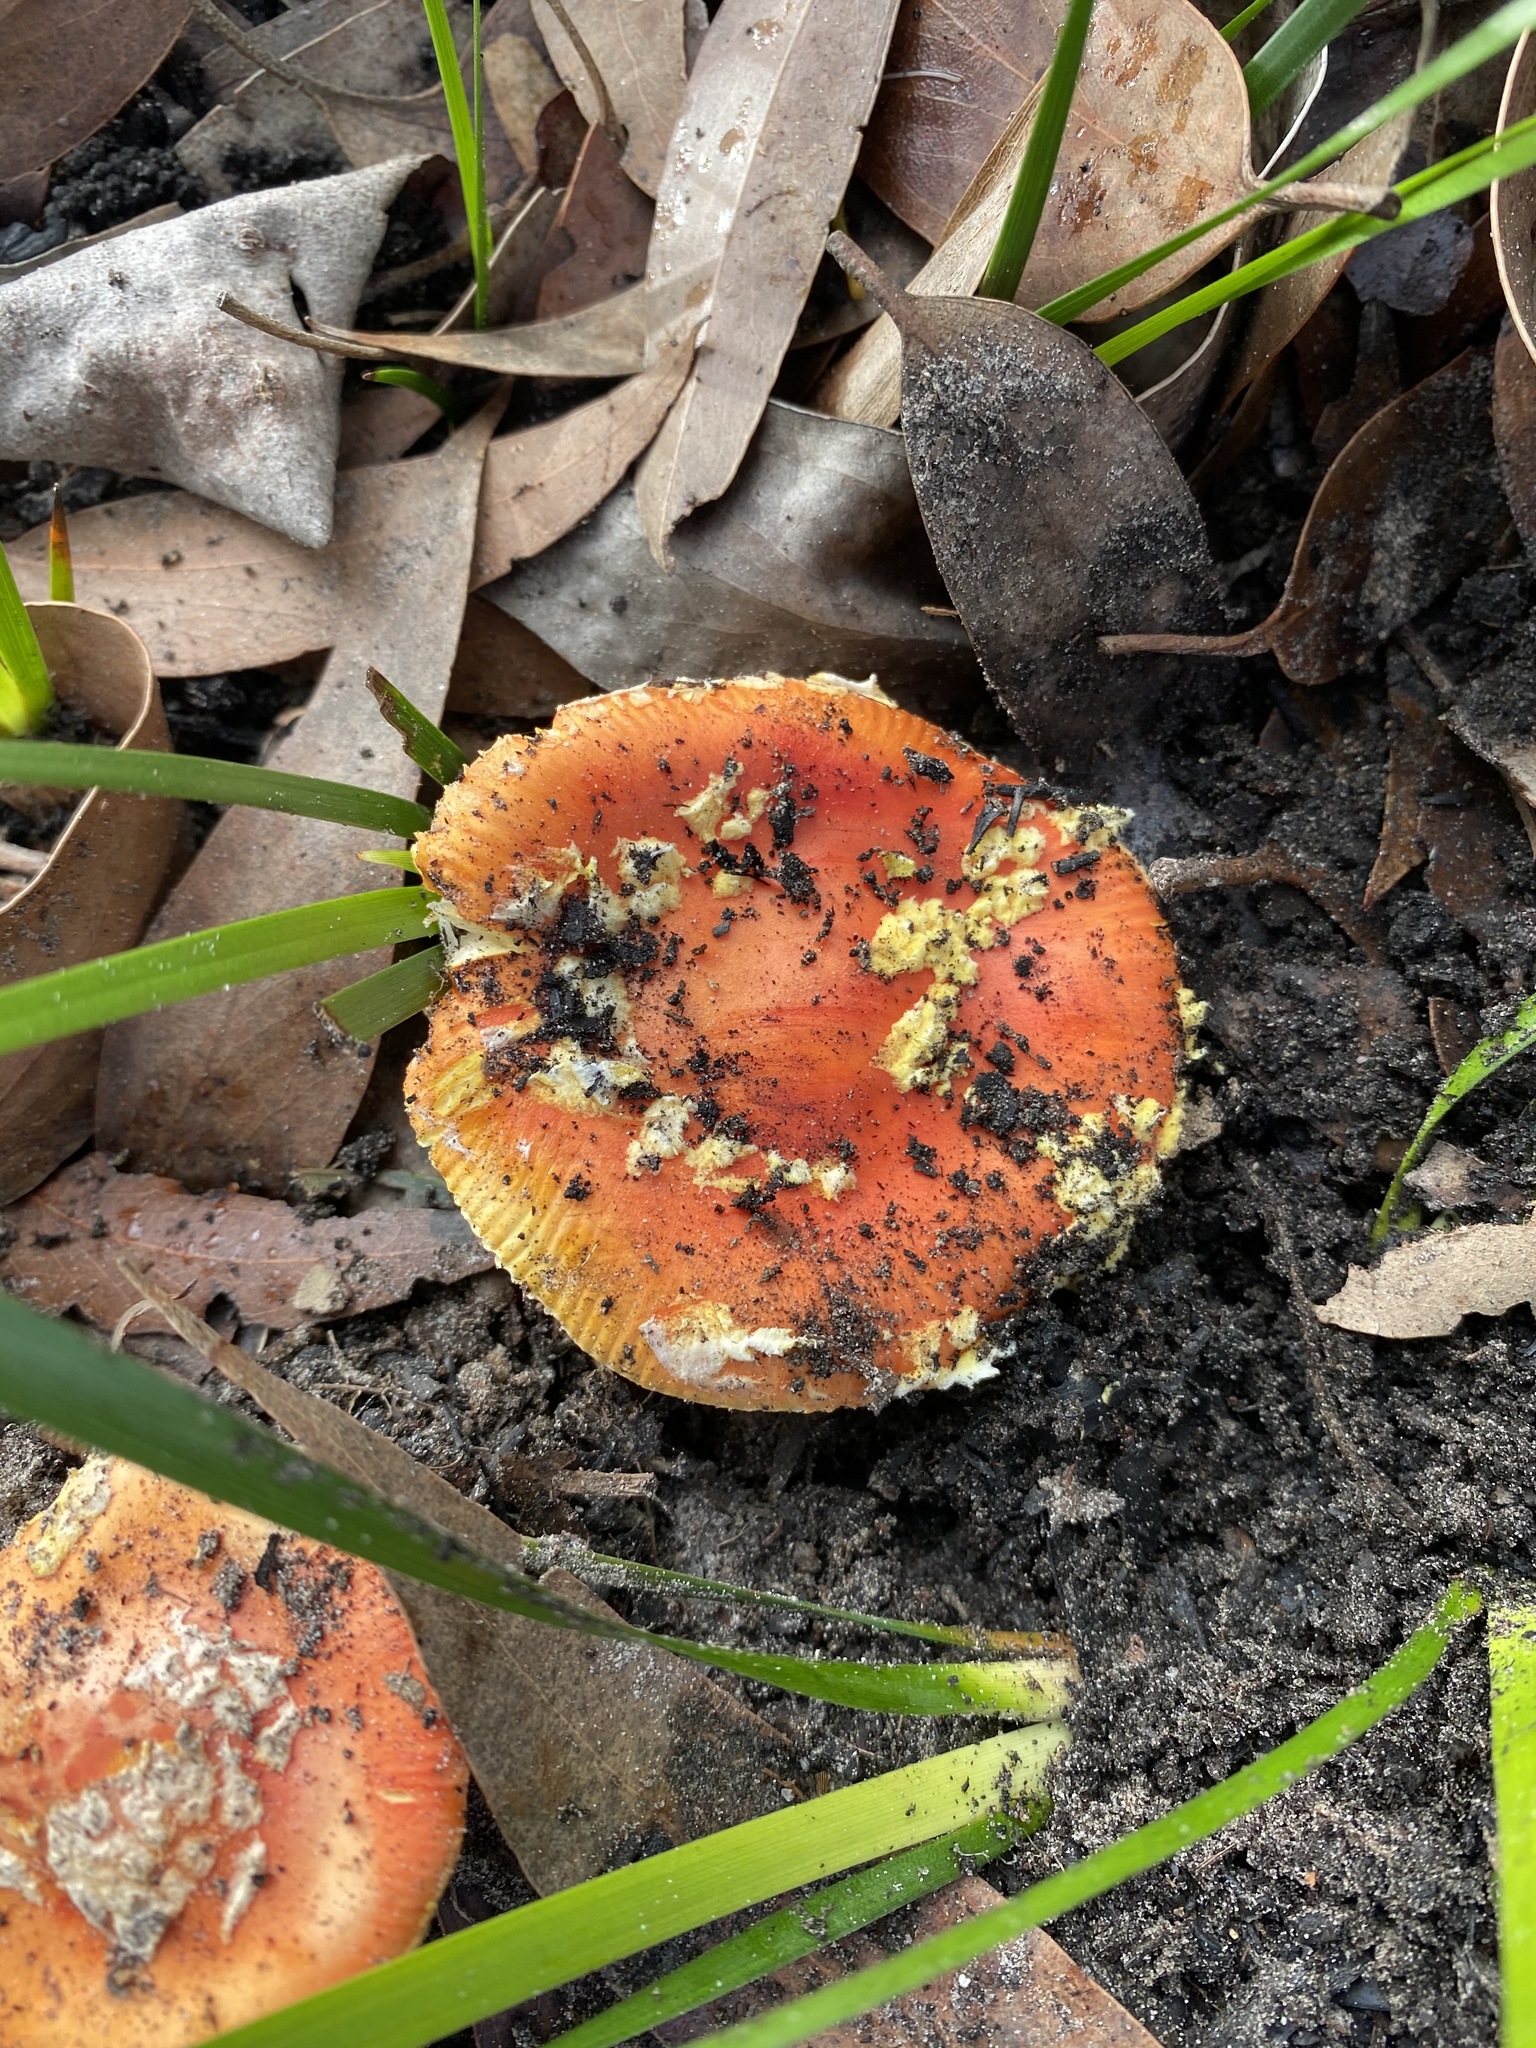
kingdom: Fungi
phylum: Basidiomycota
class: Agaricomycetes
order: Agaricales
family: Amanitaceae
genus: Amanita
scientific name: Amanita xanthocephala
